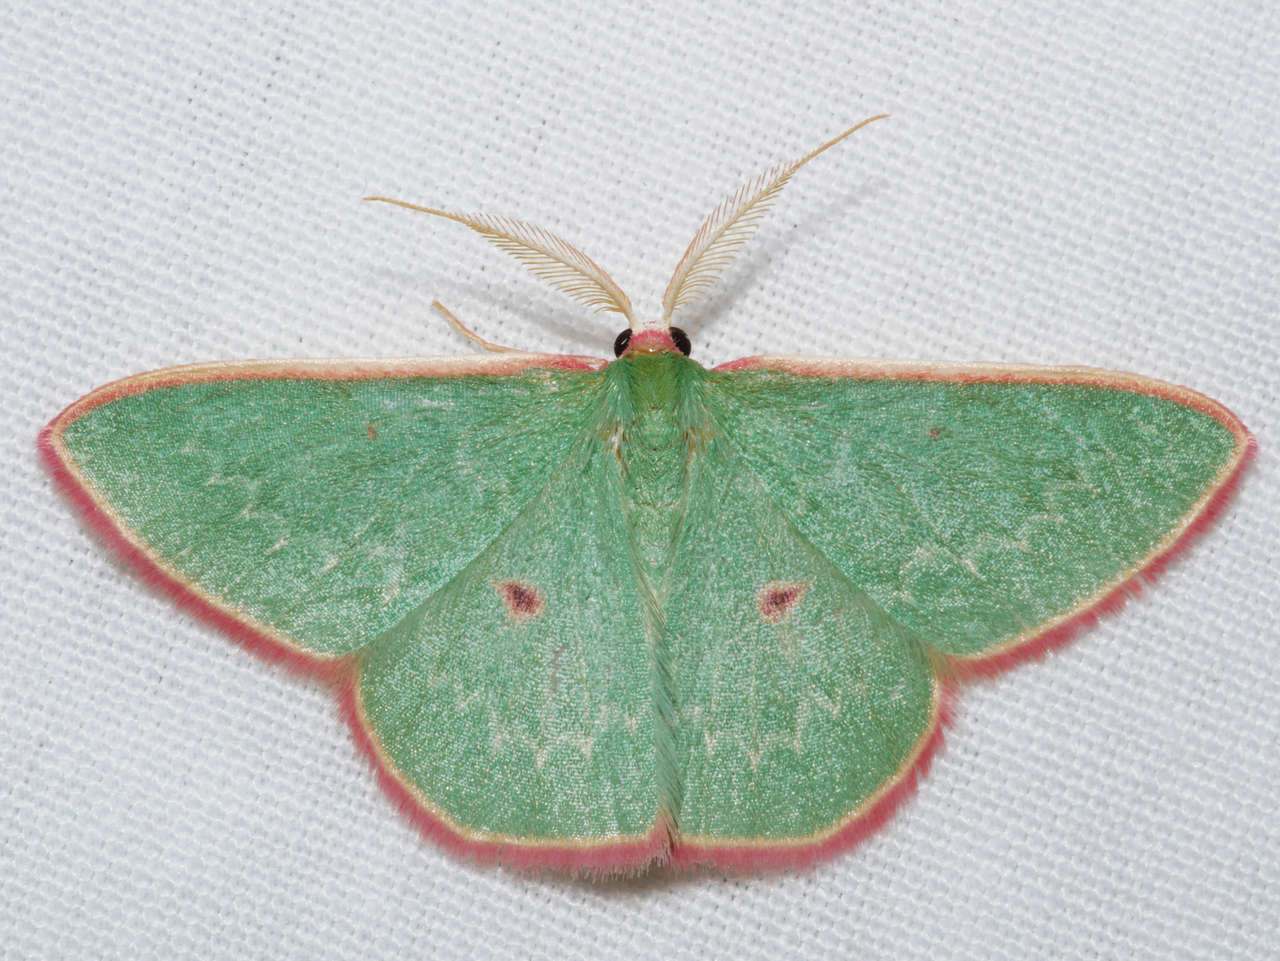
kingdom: Animalia
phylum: Arthropoda
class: Insecta
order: Lepidoptera
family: Geometridae
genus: Chlorocoma
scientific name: Chlorocoma cadmaria
